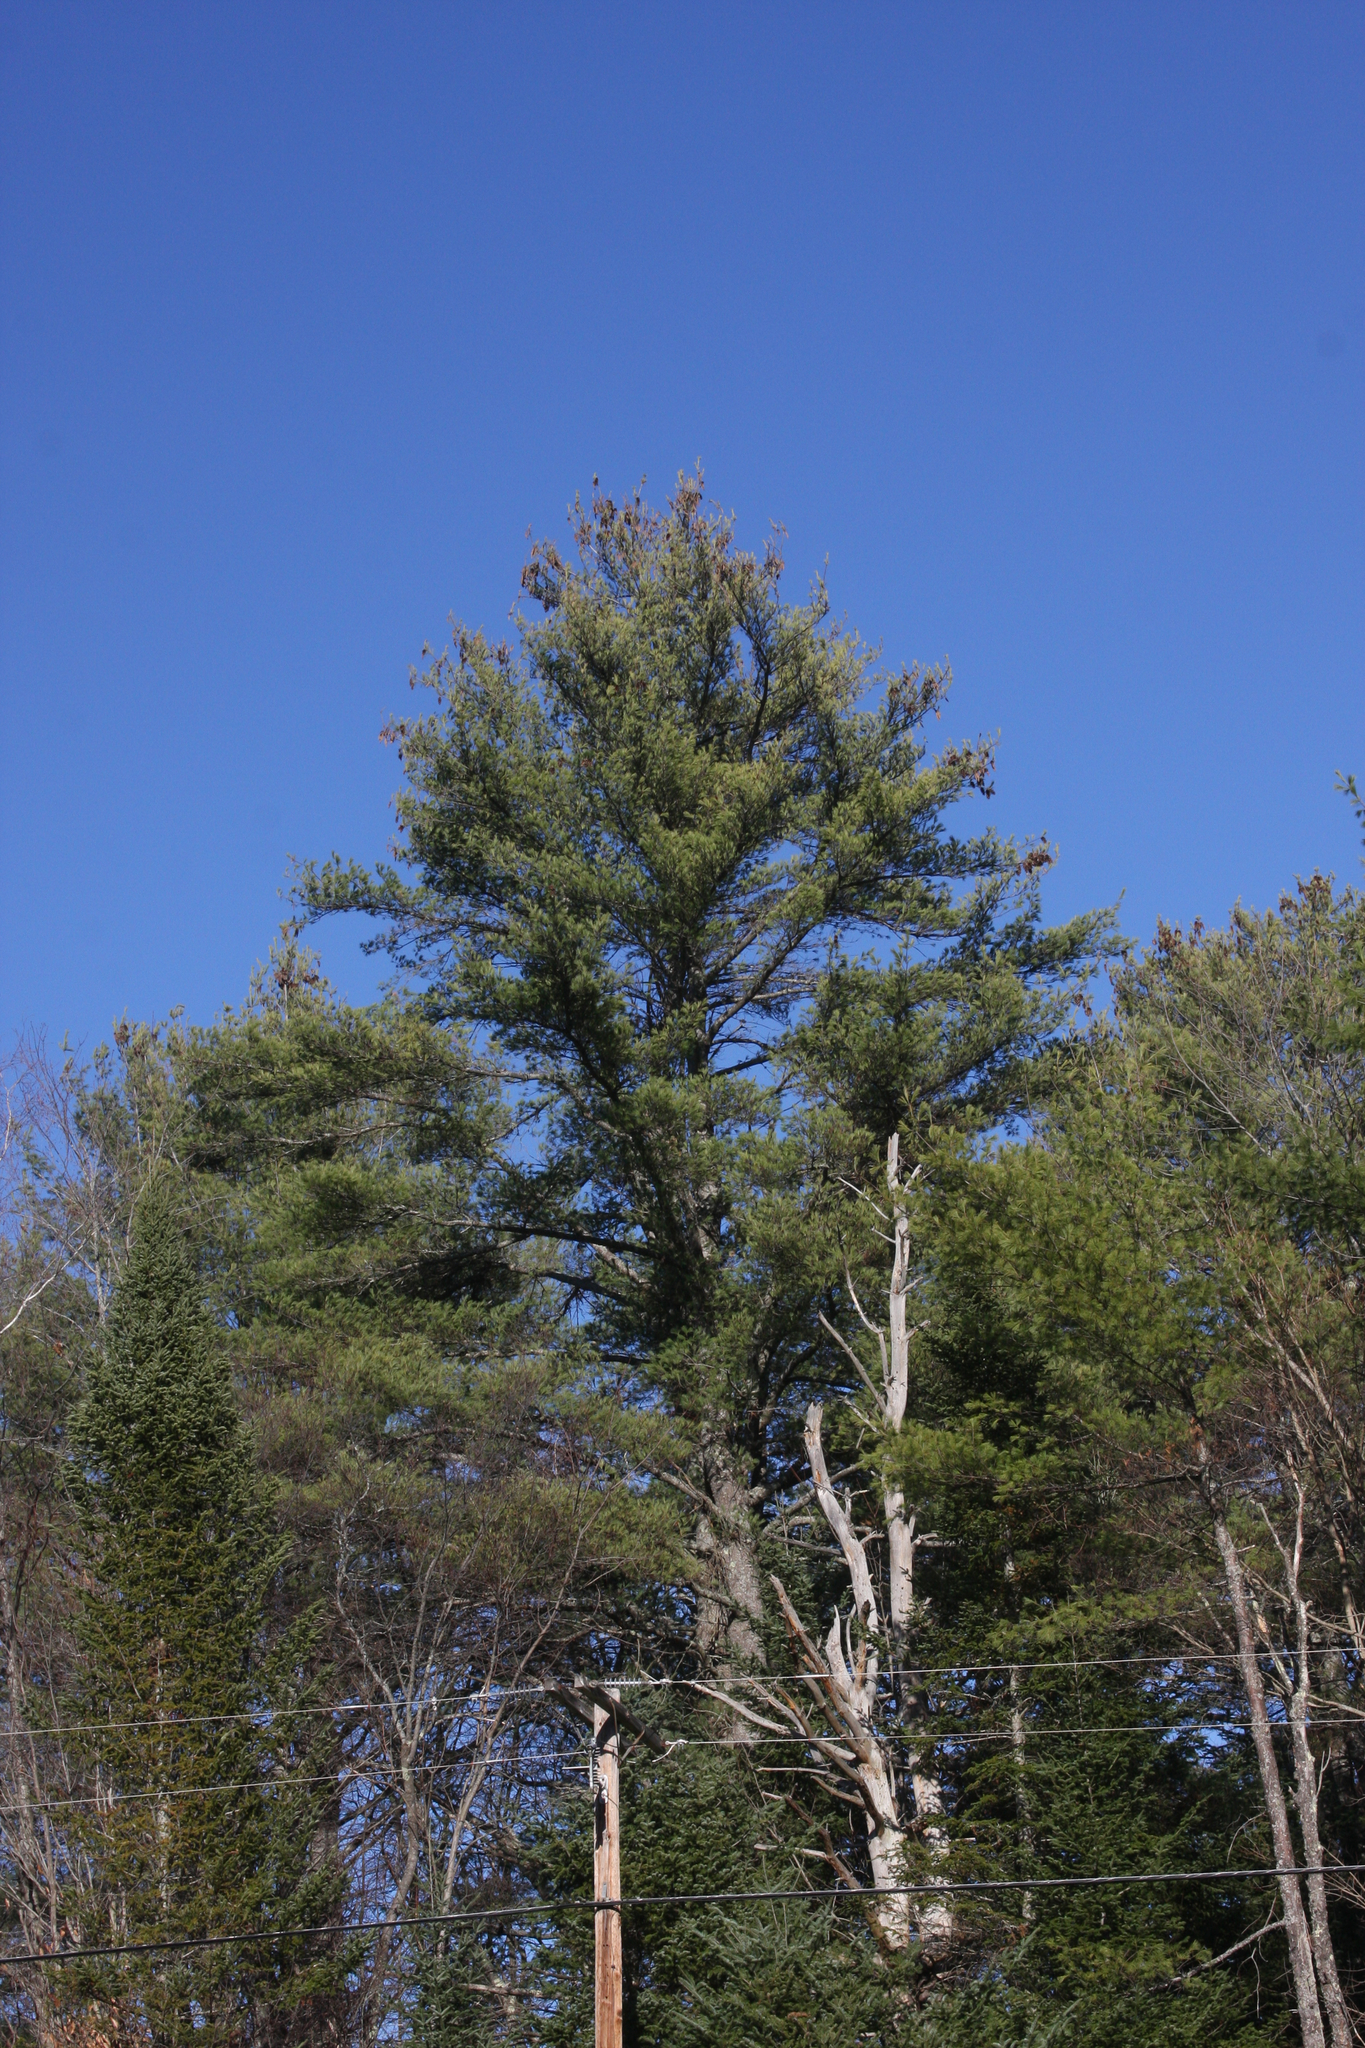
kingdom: Plantae
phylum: Tracheophyta
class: Pinopsida
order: Pinales
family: Pinaceae
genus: Pinus
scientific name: Pinus strobus
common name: Weymouth pine
